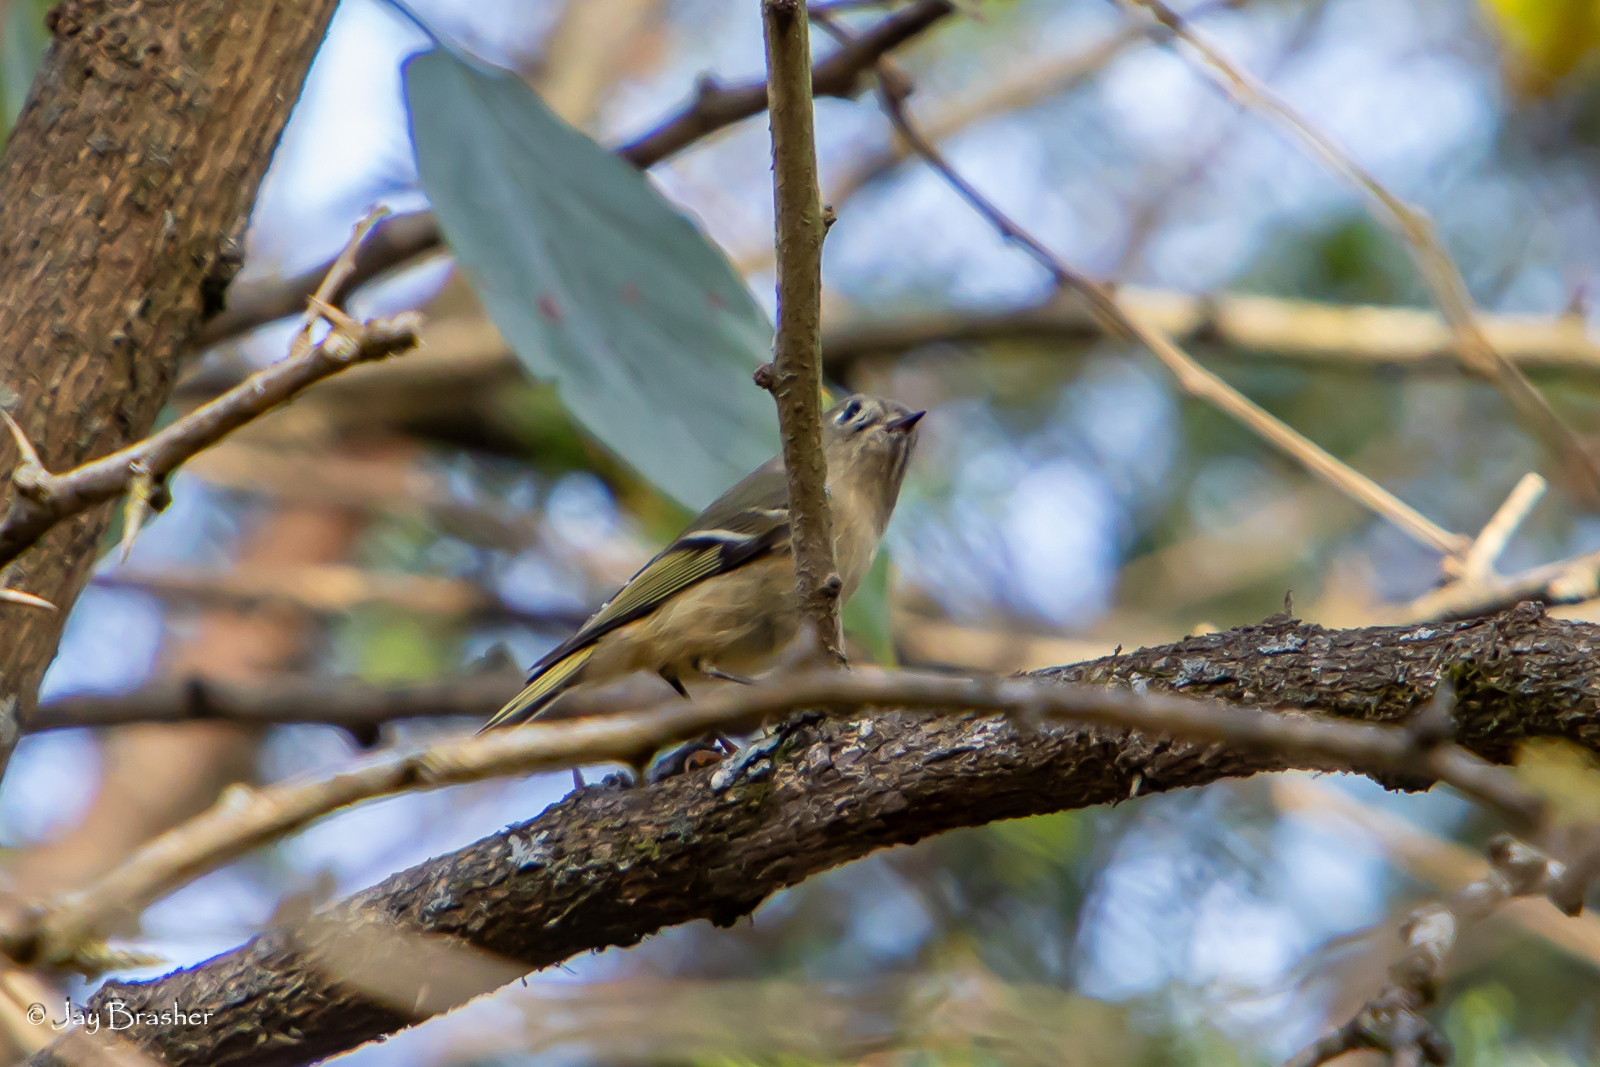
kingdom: Animalia
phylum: Chordata
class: Aves
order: Passeriformes
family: Regulidae
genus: Regulus
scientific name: Regulus calendula
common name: Ruby-crowned kinglet
